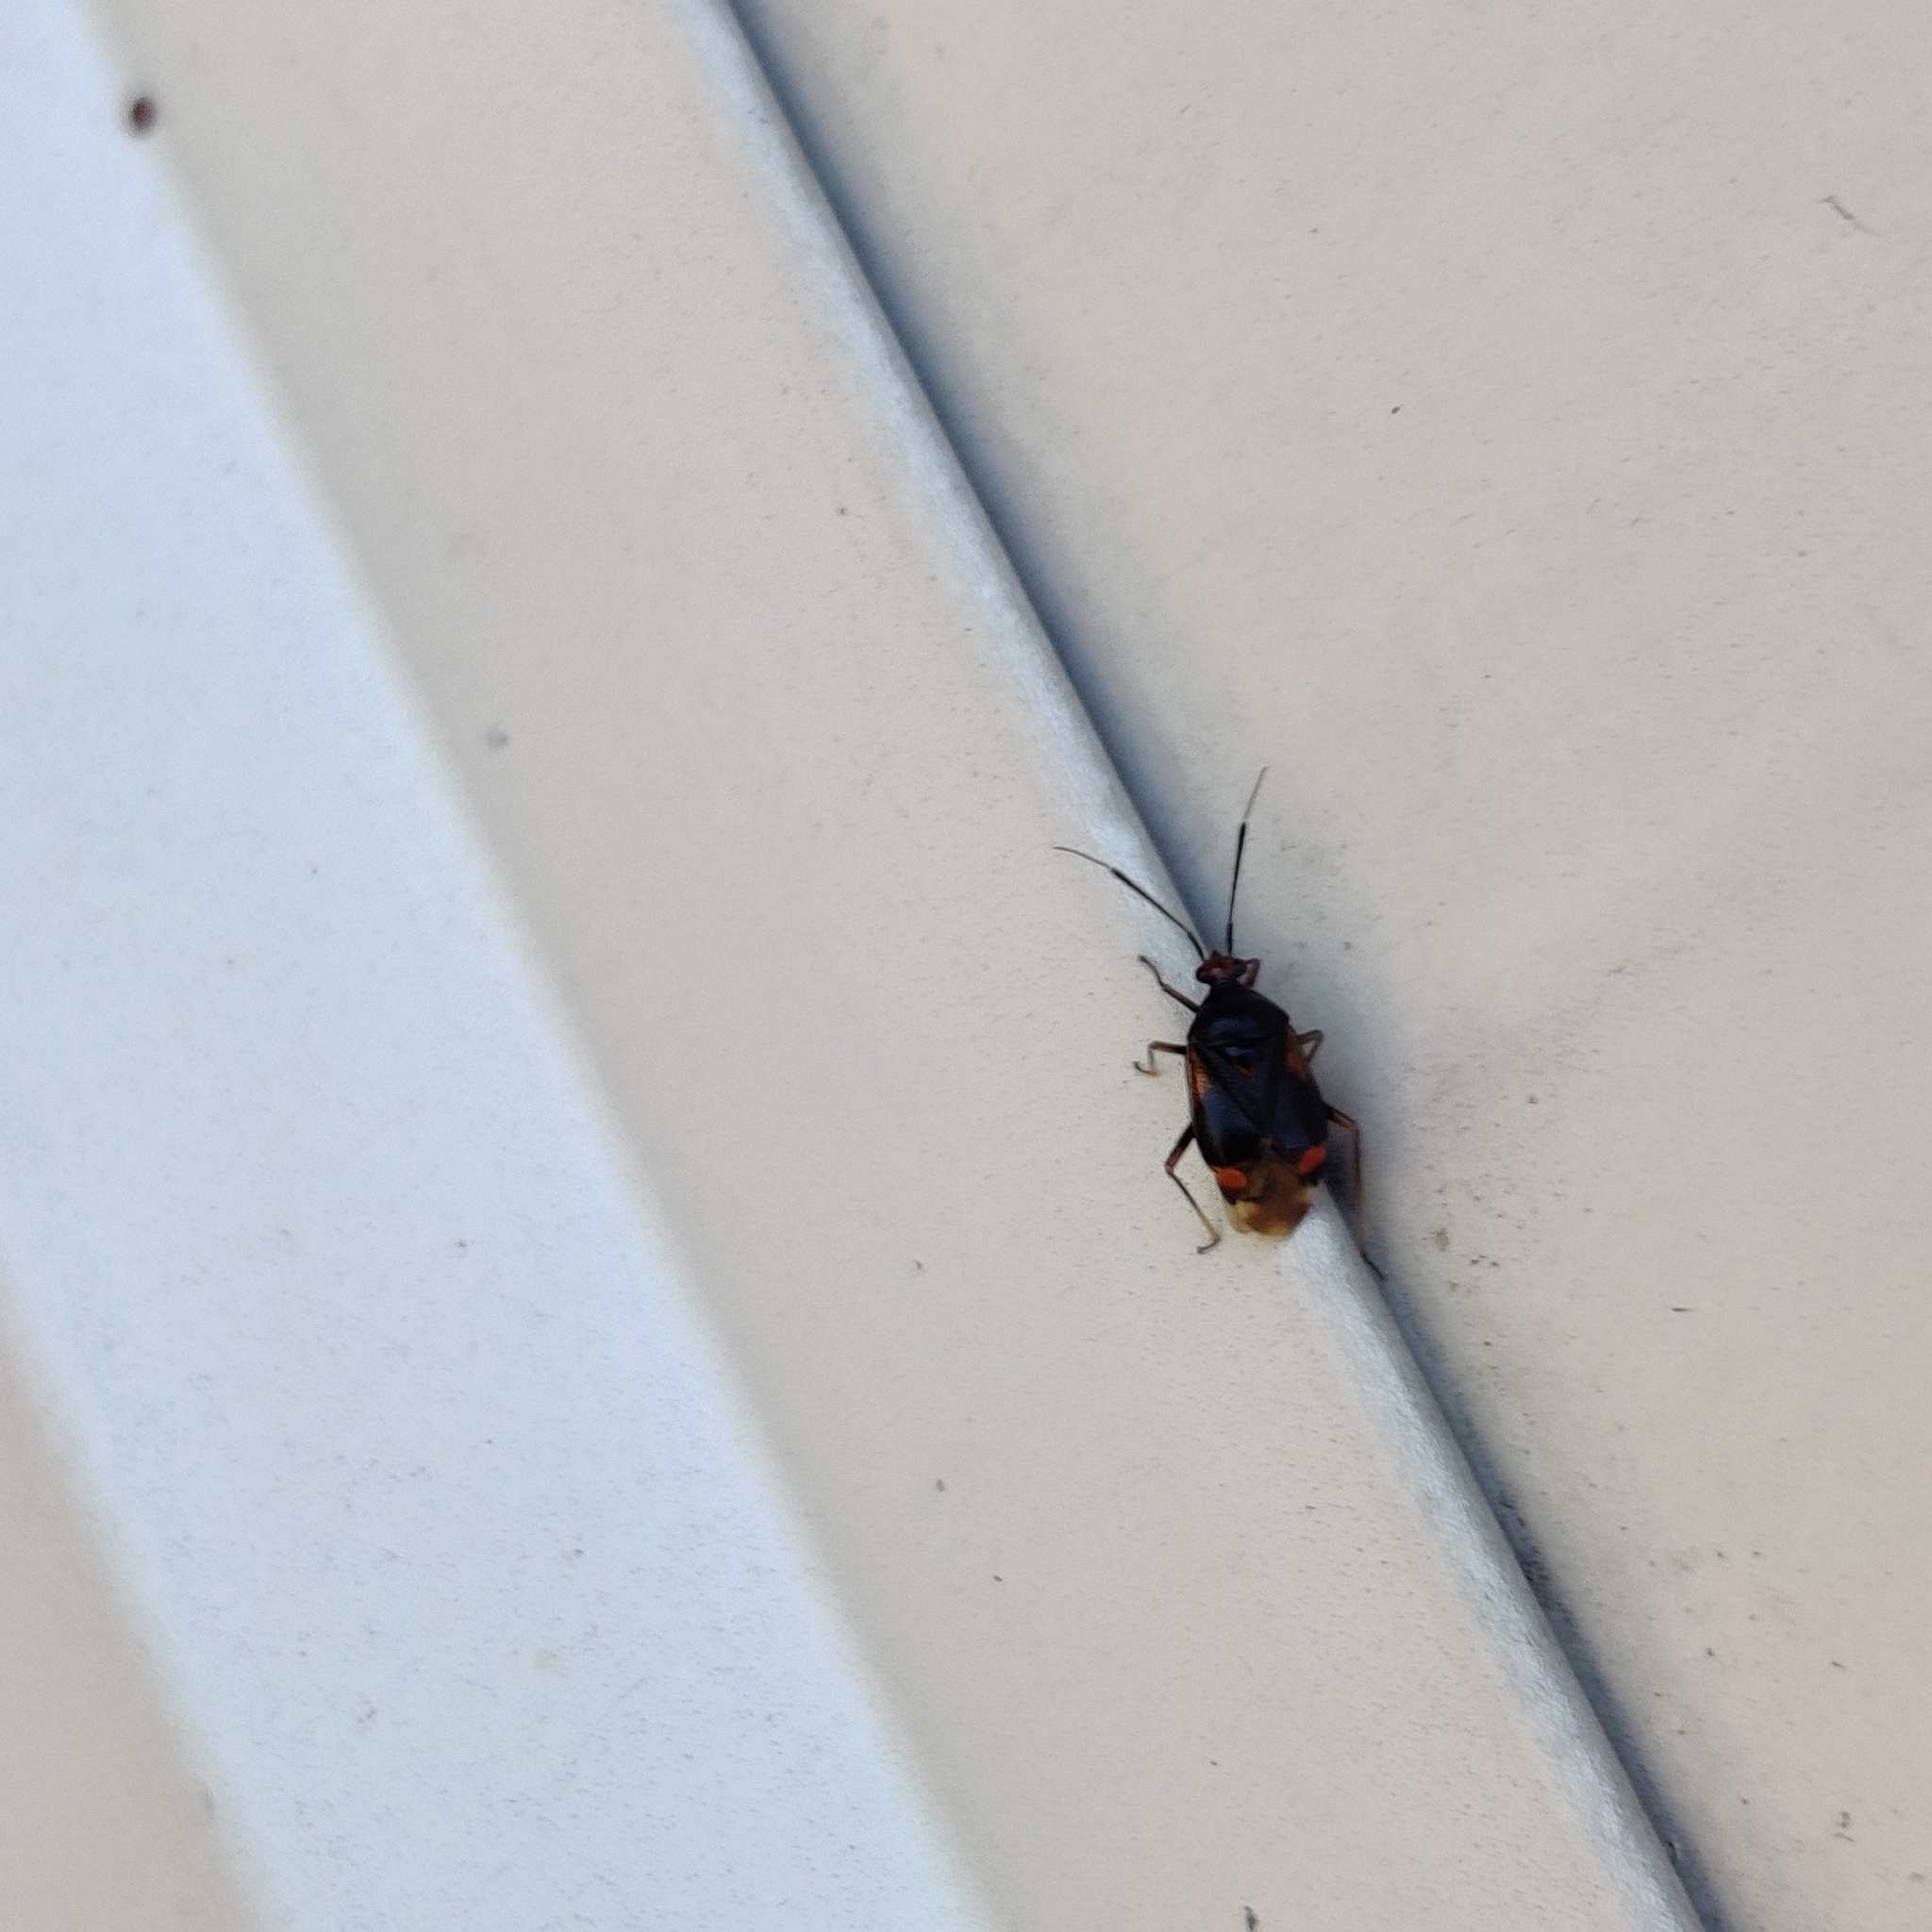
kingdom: Animalia
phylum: Arthropoda
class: Insecta
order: Hemiptera
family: Miridae
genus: Deraeocoris
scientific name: Deraeocoris ruber
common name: Plant bug
